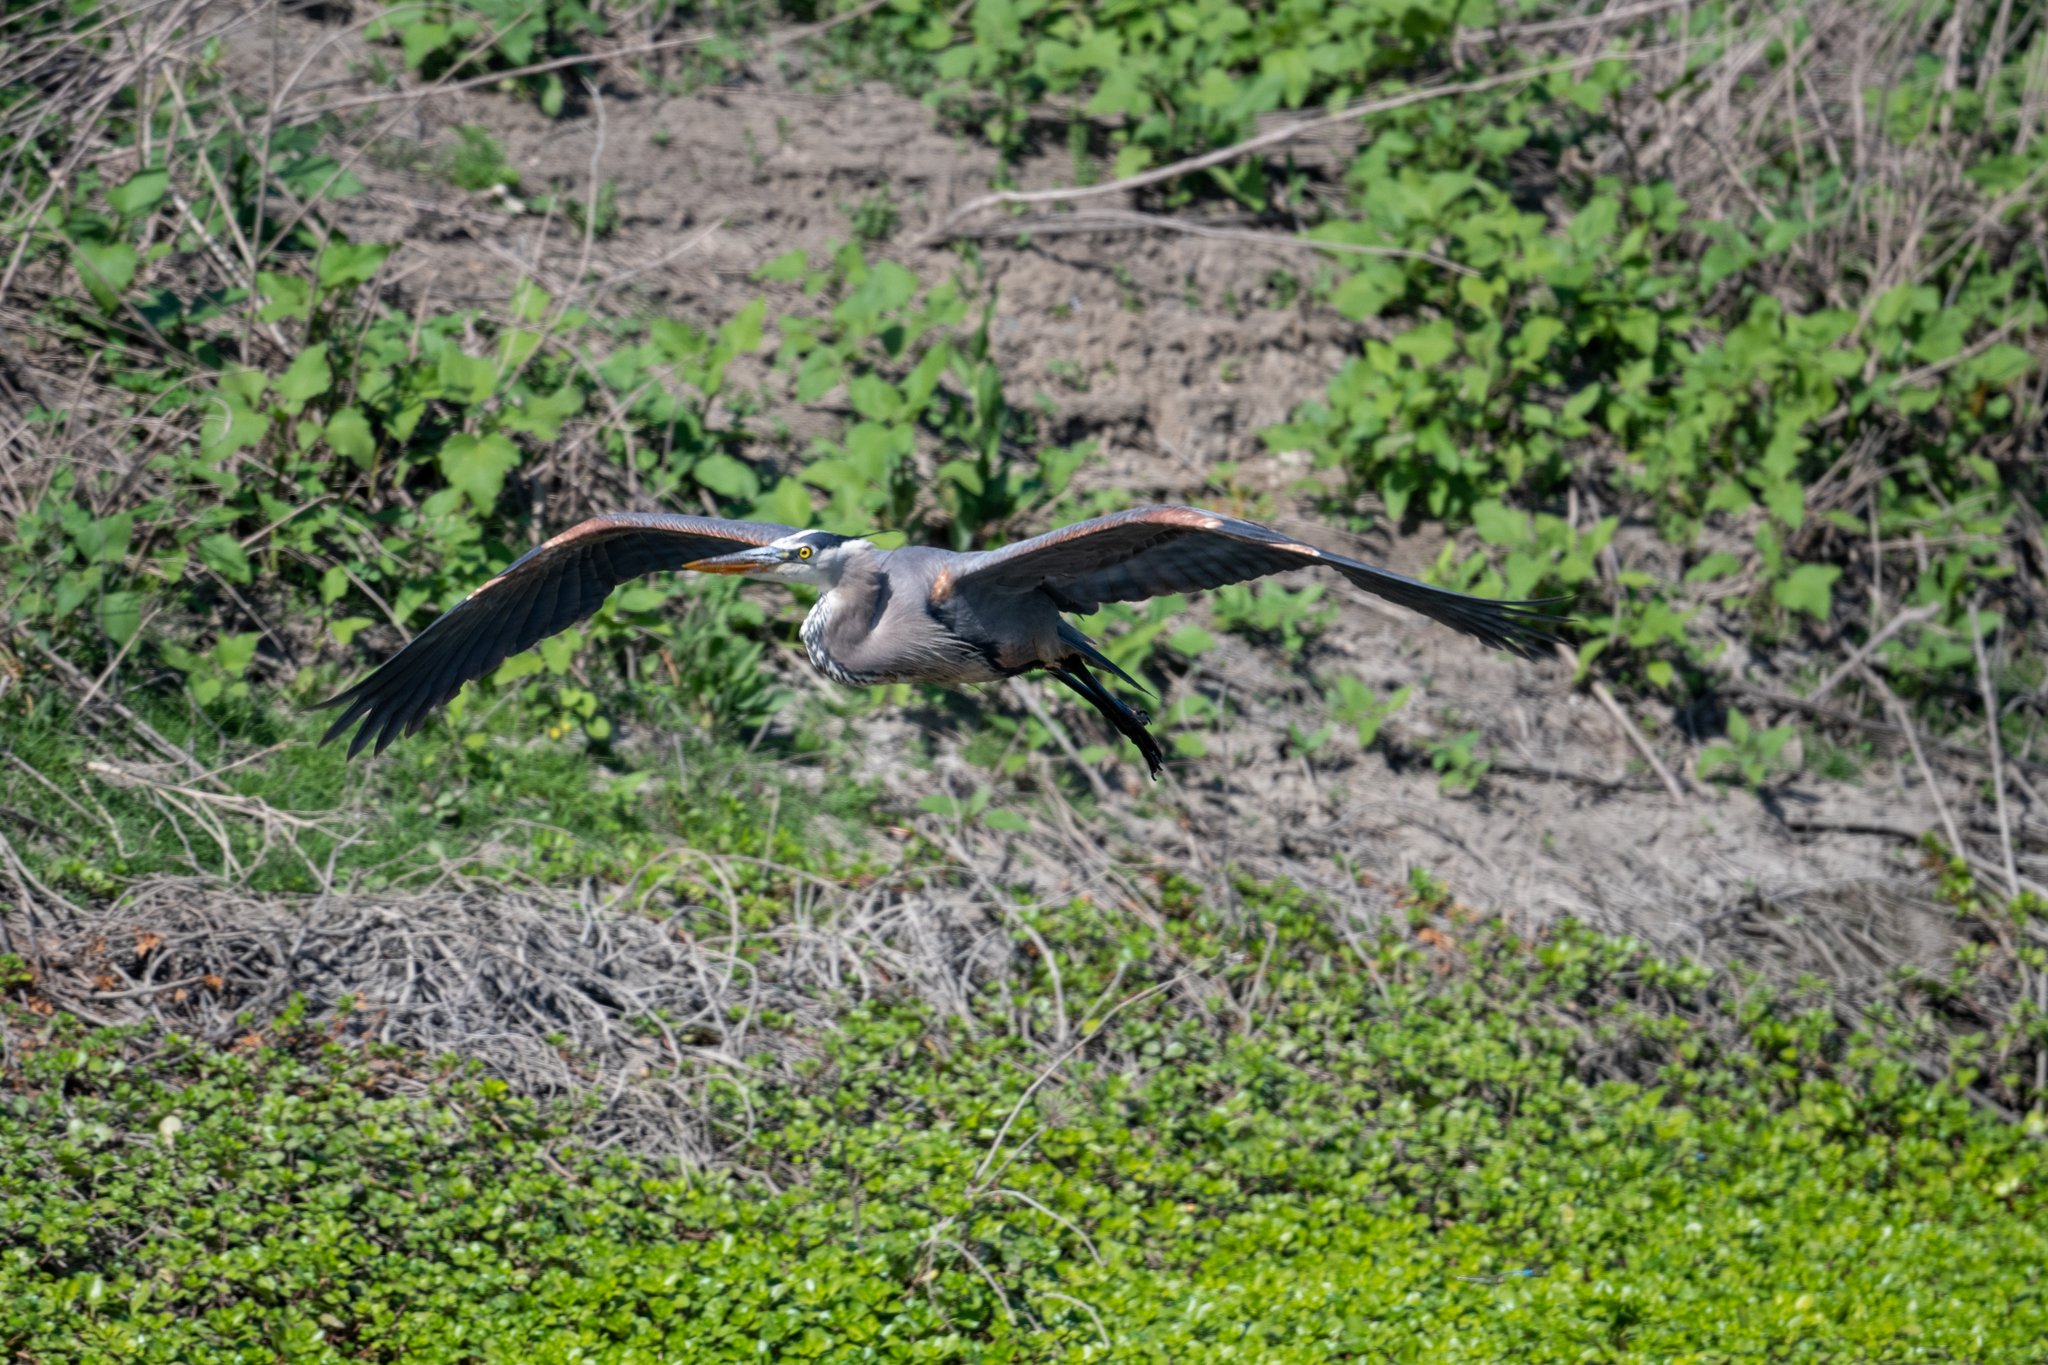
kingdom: Animalia
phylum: Chordata
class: Aves
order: Pelecaniformes
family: Ardeidae
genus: Ardea
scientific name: Ardea herodias
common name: Great blue heron
